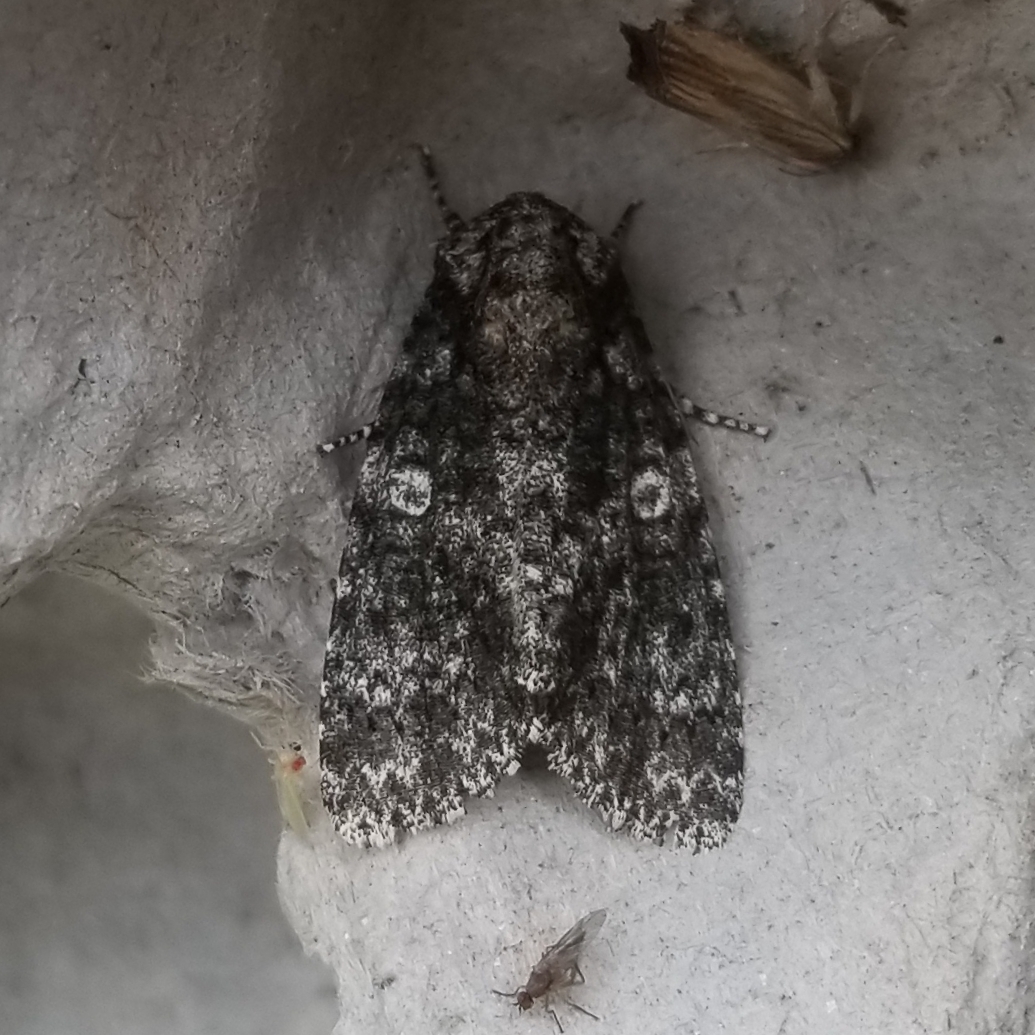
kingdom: Animalia
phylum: Arthropoda
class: Insecta
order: Lepidoptera
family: Noctuidae
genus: Acronicta
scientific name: Acronicta afflicta
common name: Afflicted dagger moth
